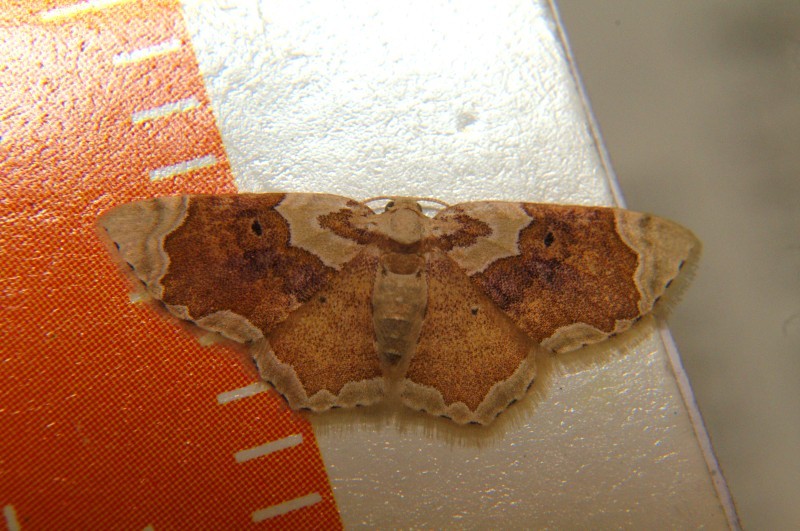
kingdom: Animalia
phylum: Arthropoda
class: Insecta
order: Lepidoptera
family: Geometridae
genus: Palpoctenidia
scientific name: Palpoctenidia phoenicosoma
